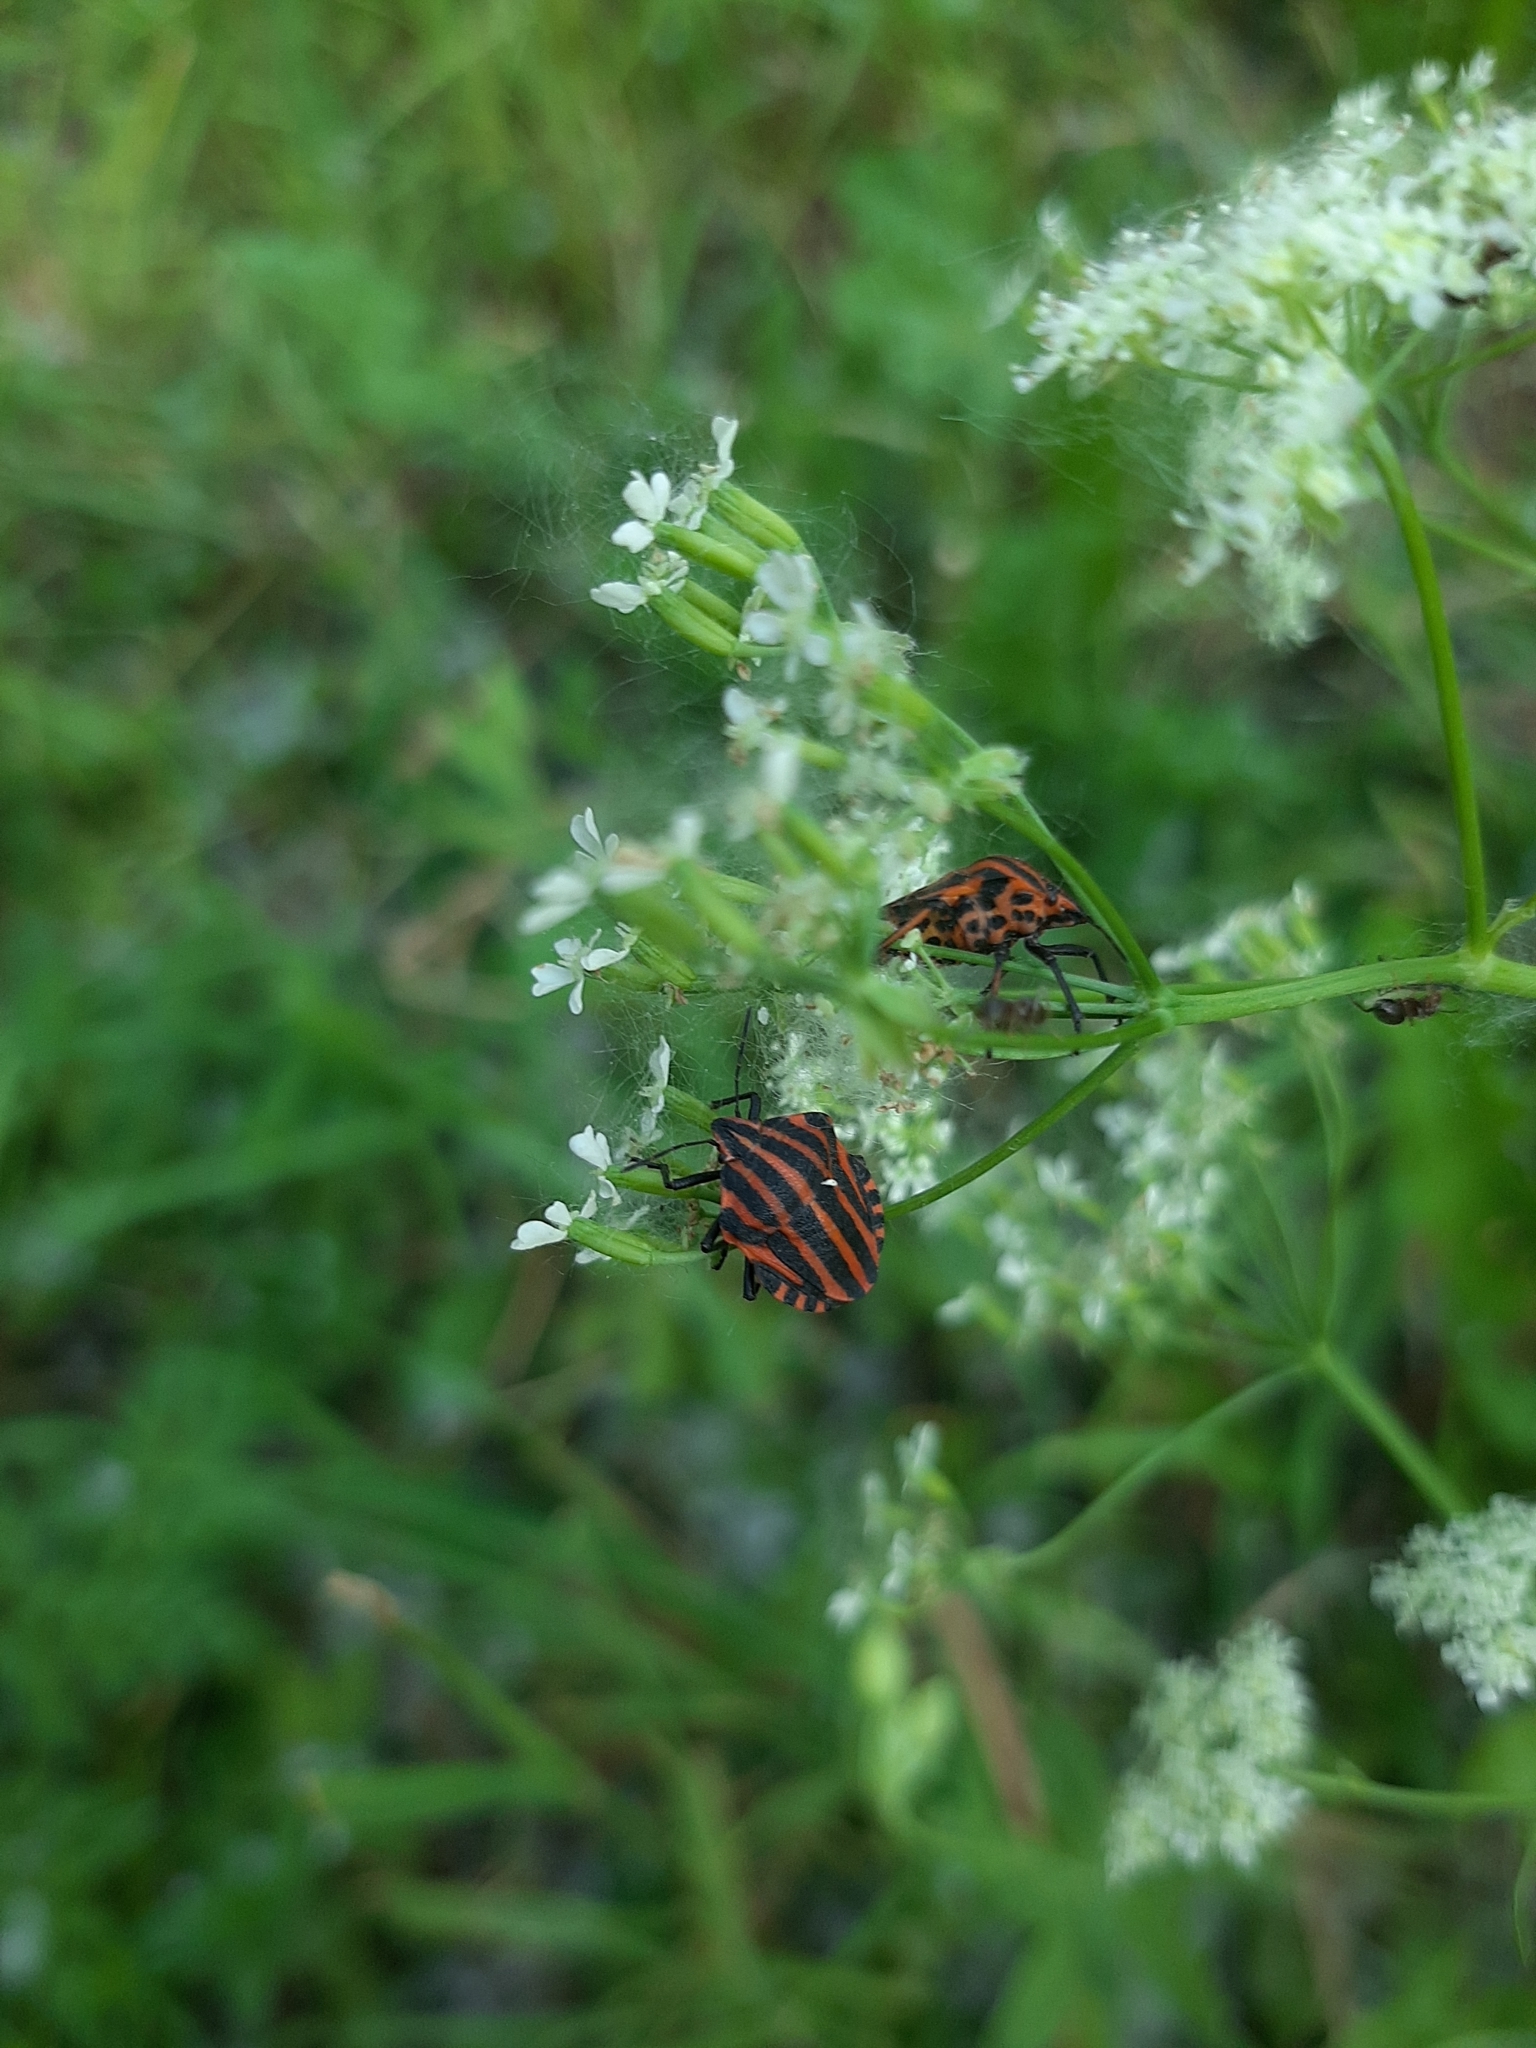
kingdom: Animalia
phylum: Arthropoda
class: Insecta
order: Hemiptera
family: Pentatomidae
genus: Graphosoma
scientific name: Graphosoma italicum
